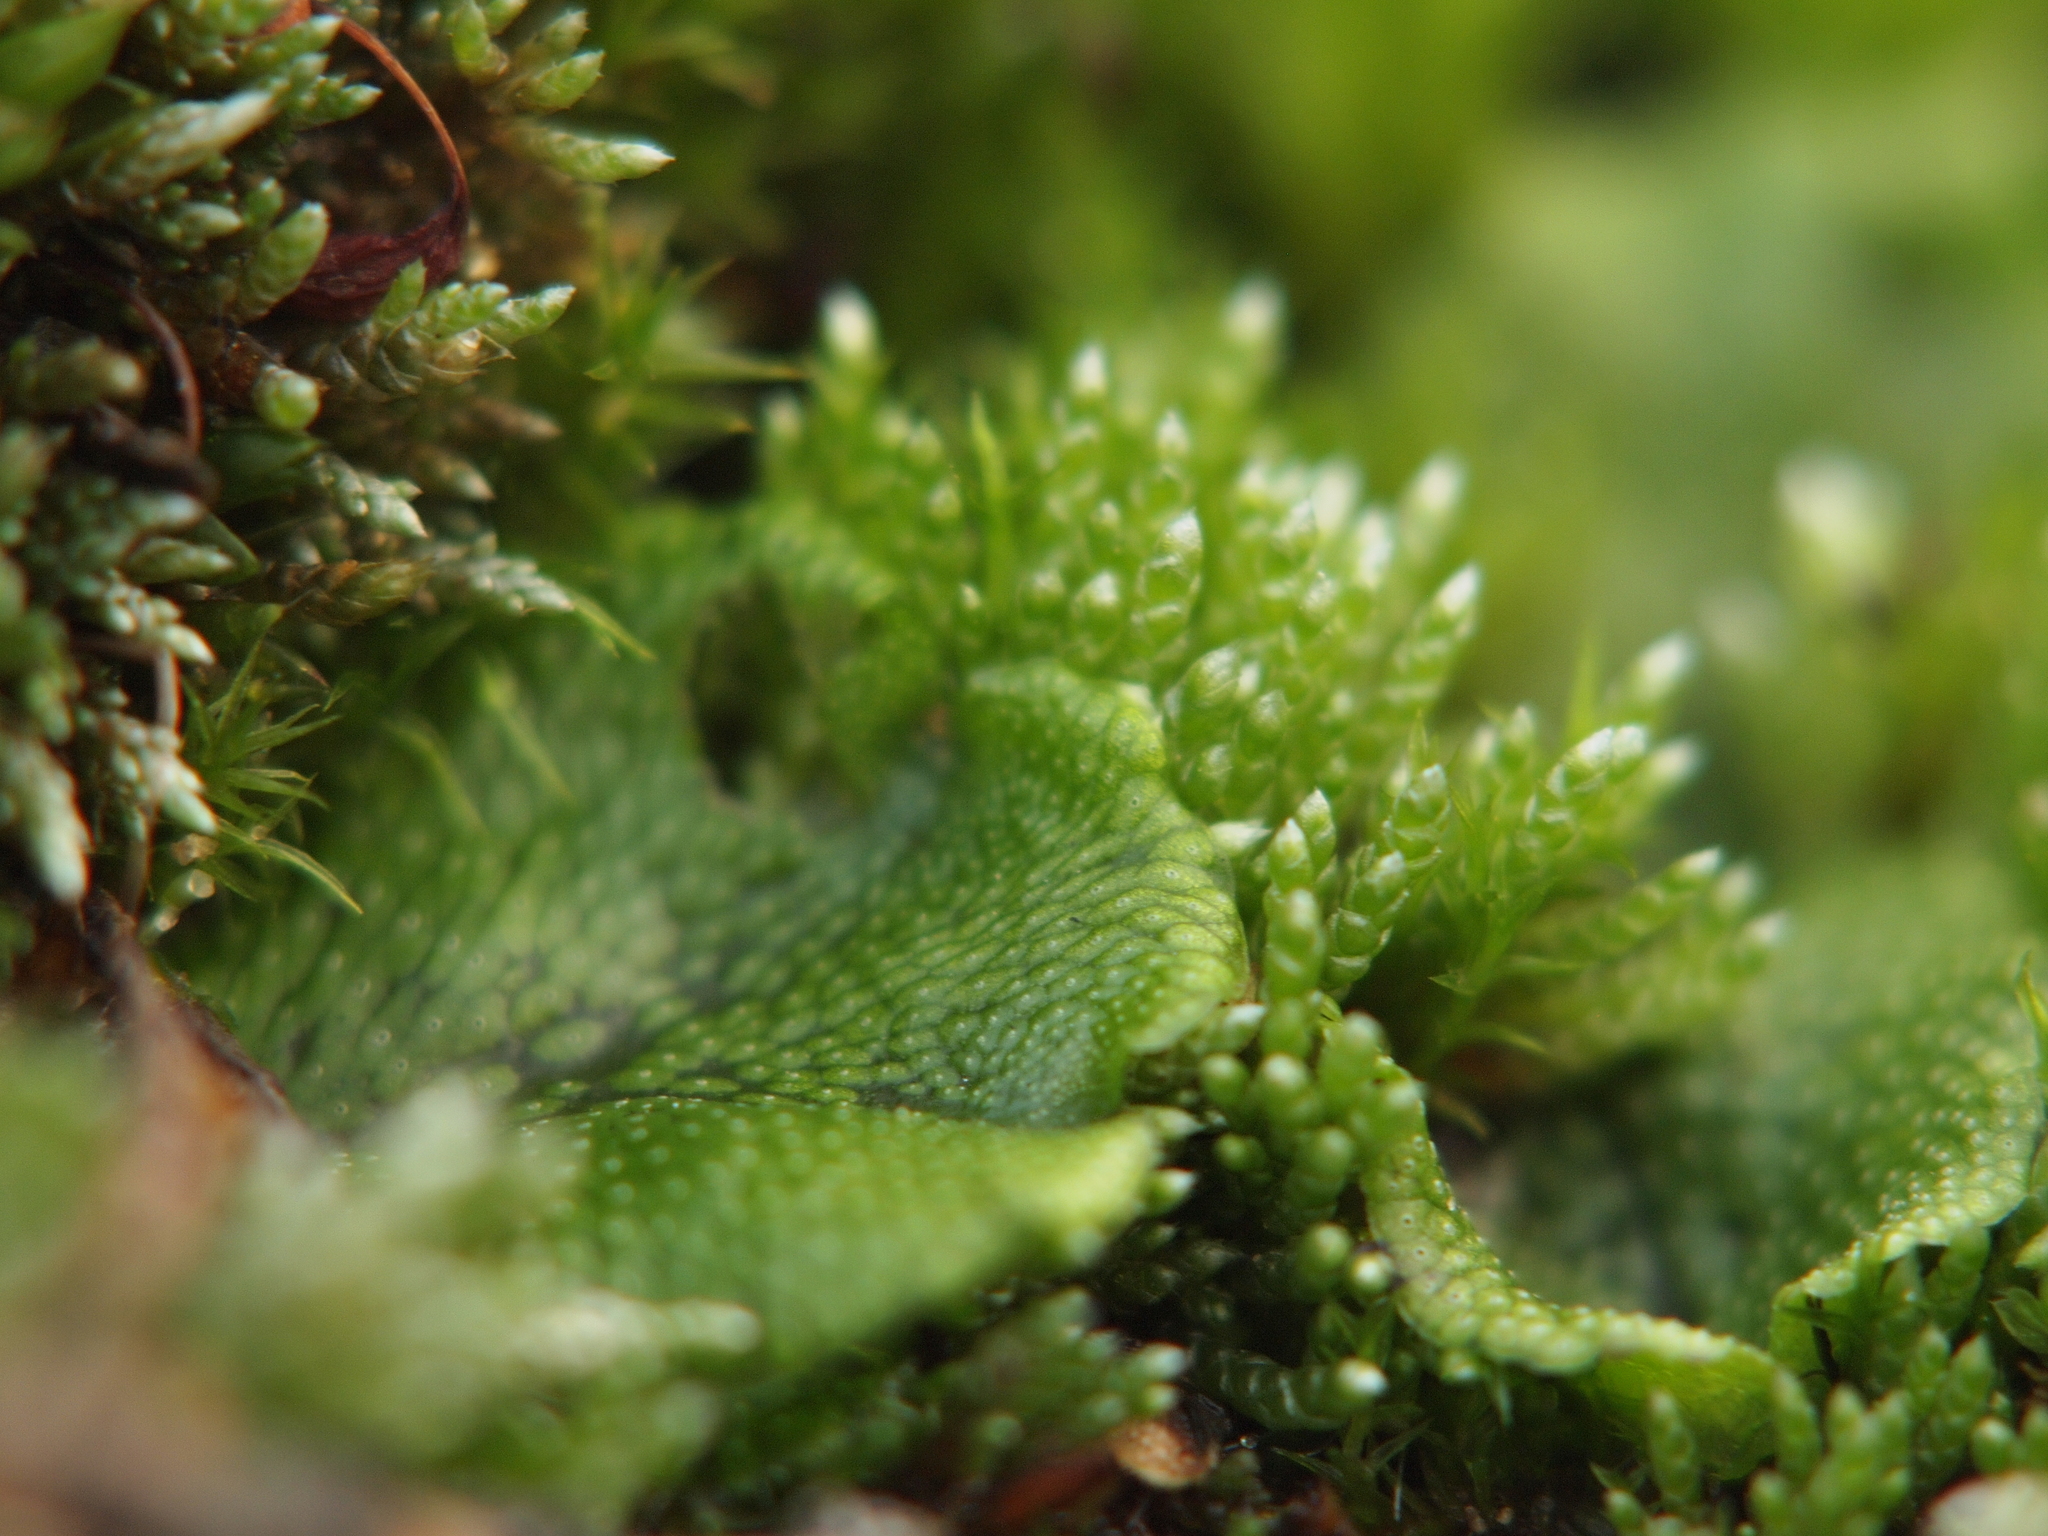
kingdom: Plantae
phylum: Marchantiophyta
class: Marchantiopsida
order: Marchantiales
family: Marchantiaceae
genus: Marchantia
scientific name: Marchantia polymorpha
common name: Common liverwort
